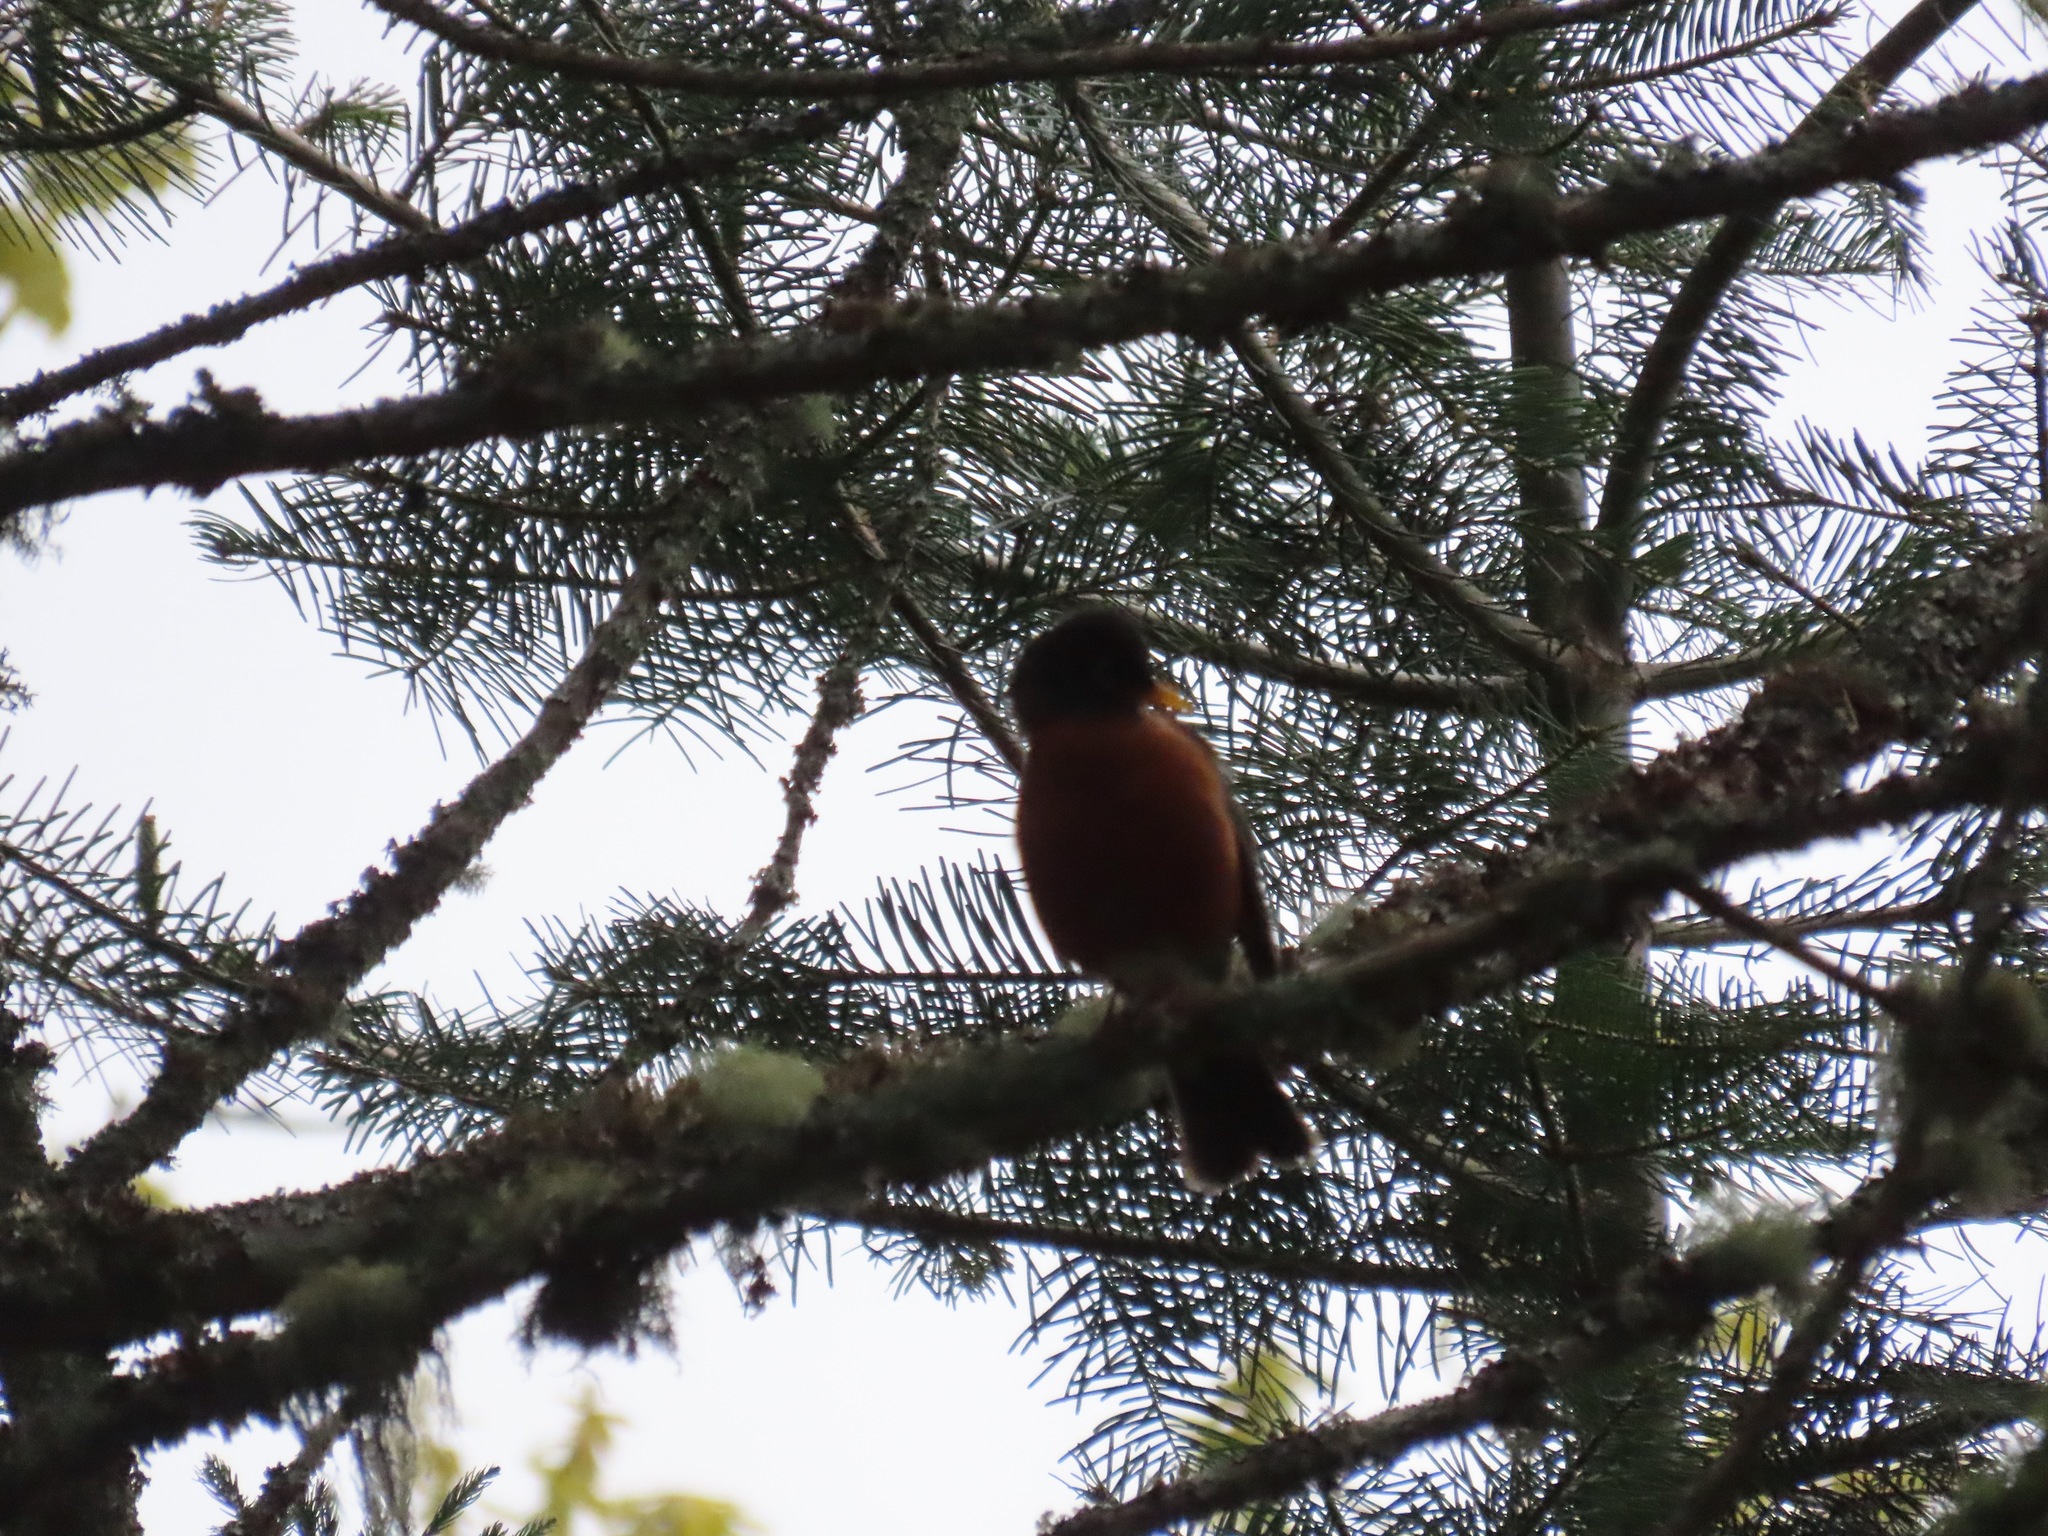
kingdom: Animalia
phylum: Chordata
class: Aves
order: Passeriformes
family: Turdidae
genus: Turdus
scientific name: Turdus migratorius
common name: American robin
